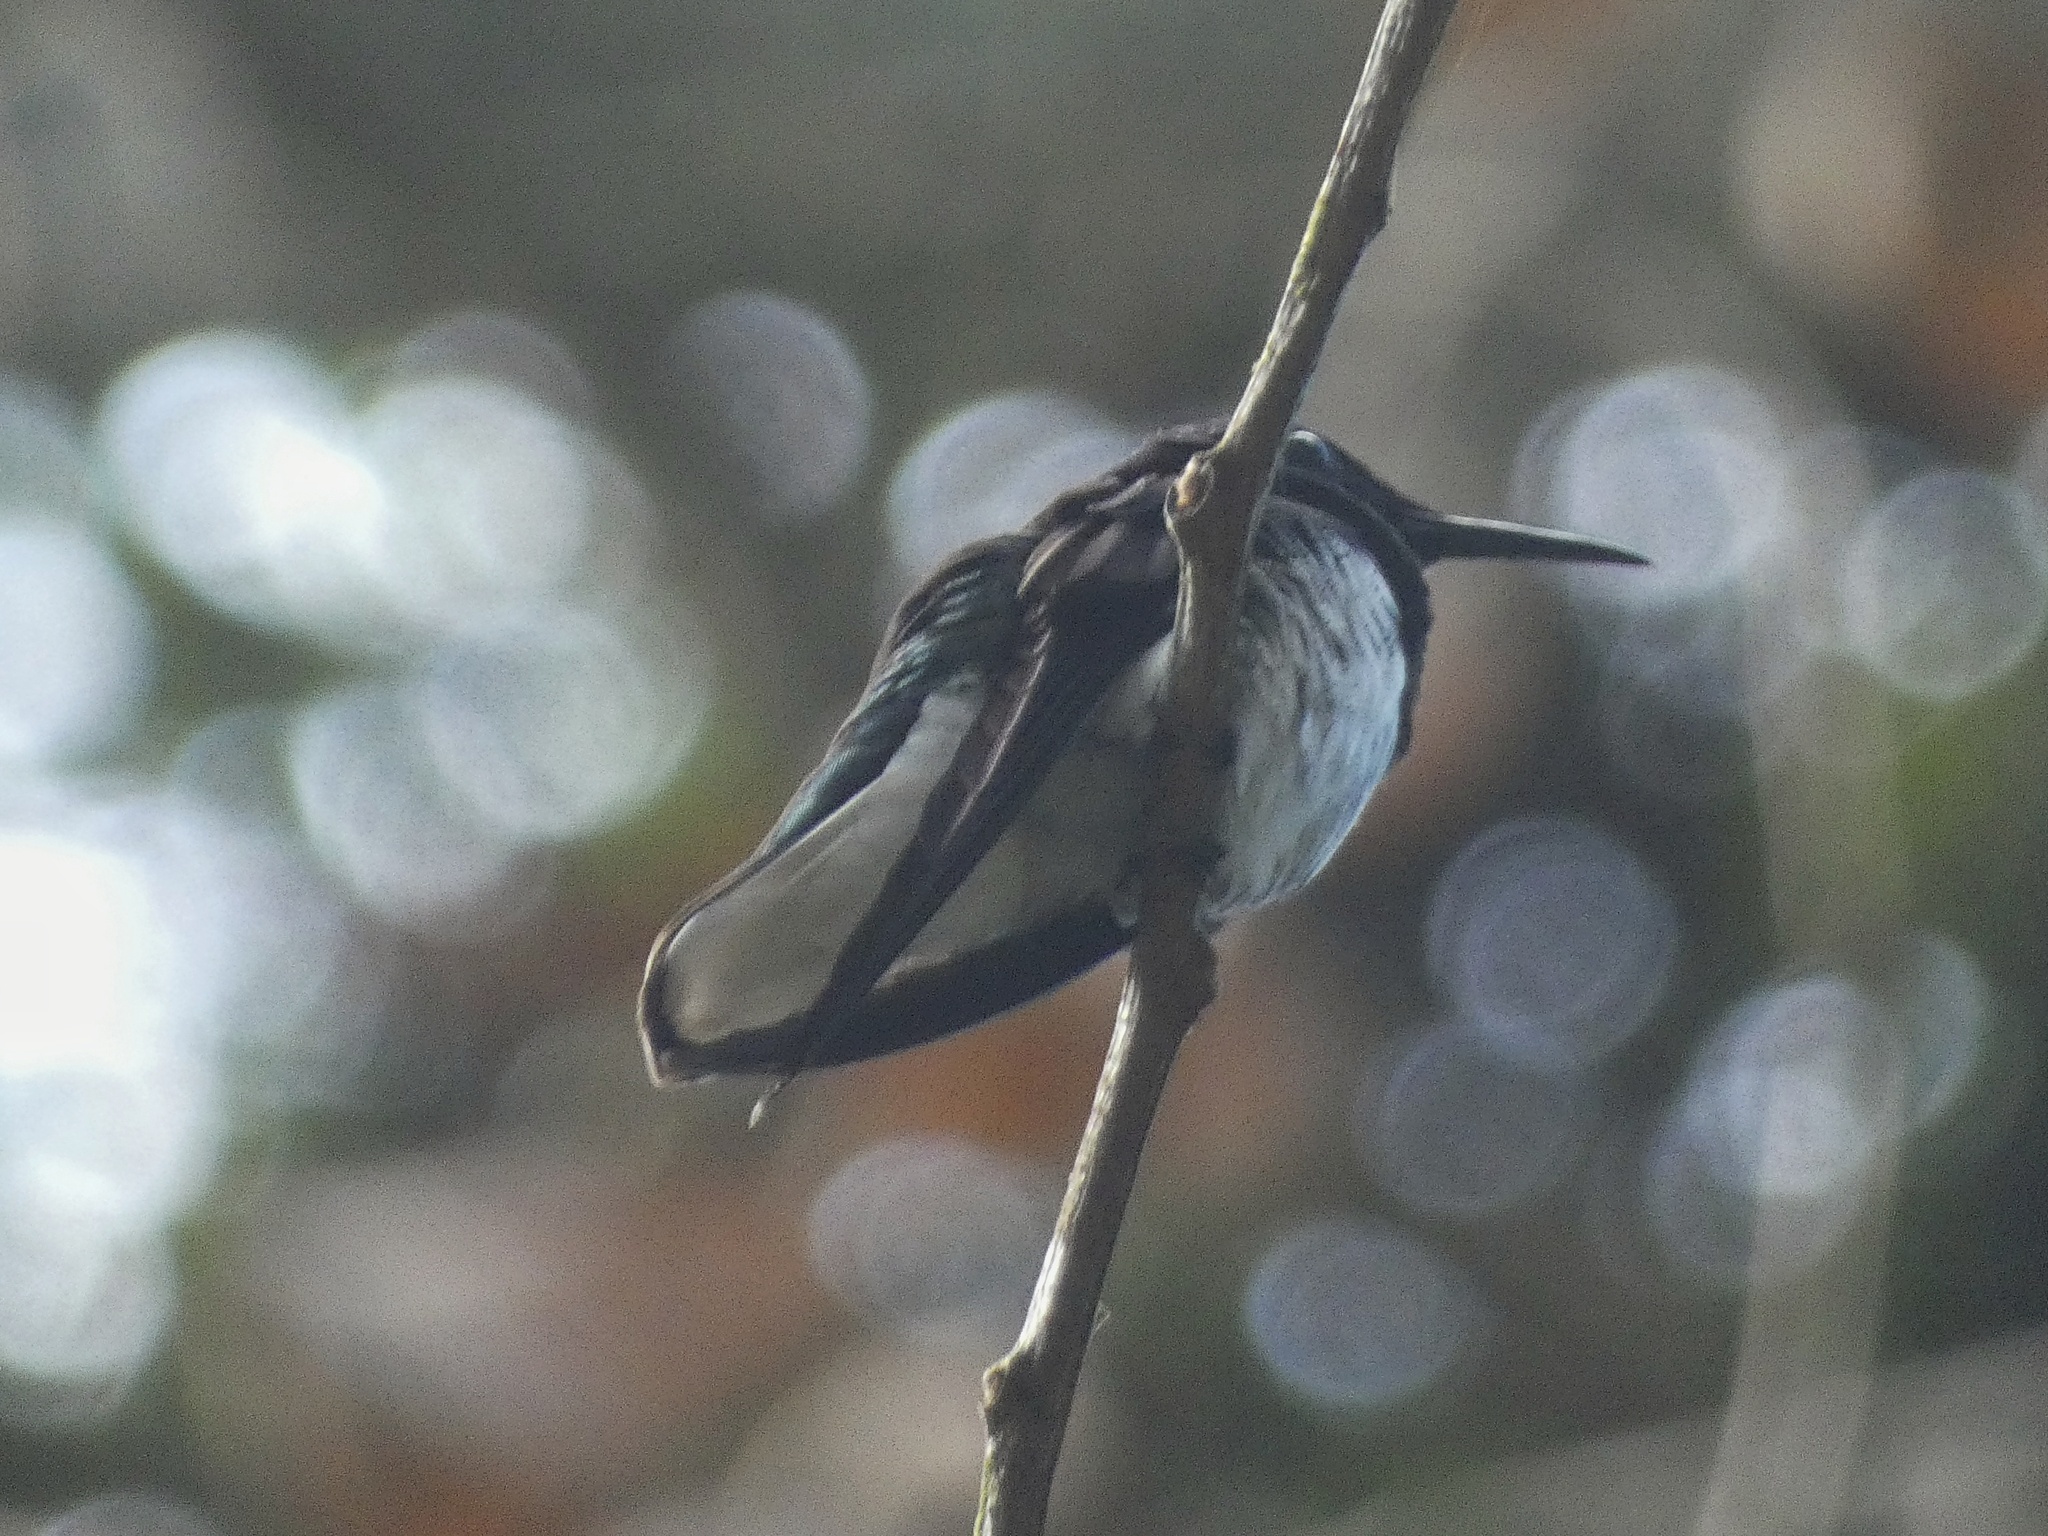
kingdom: Animalia
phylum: Chordata
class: Aves
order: Apodiformes
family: Trochilidae
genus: Florisuga
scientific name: Florisuga mellivora
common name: White-necked jacobin
